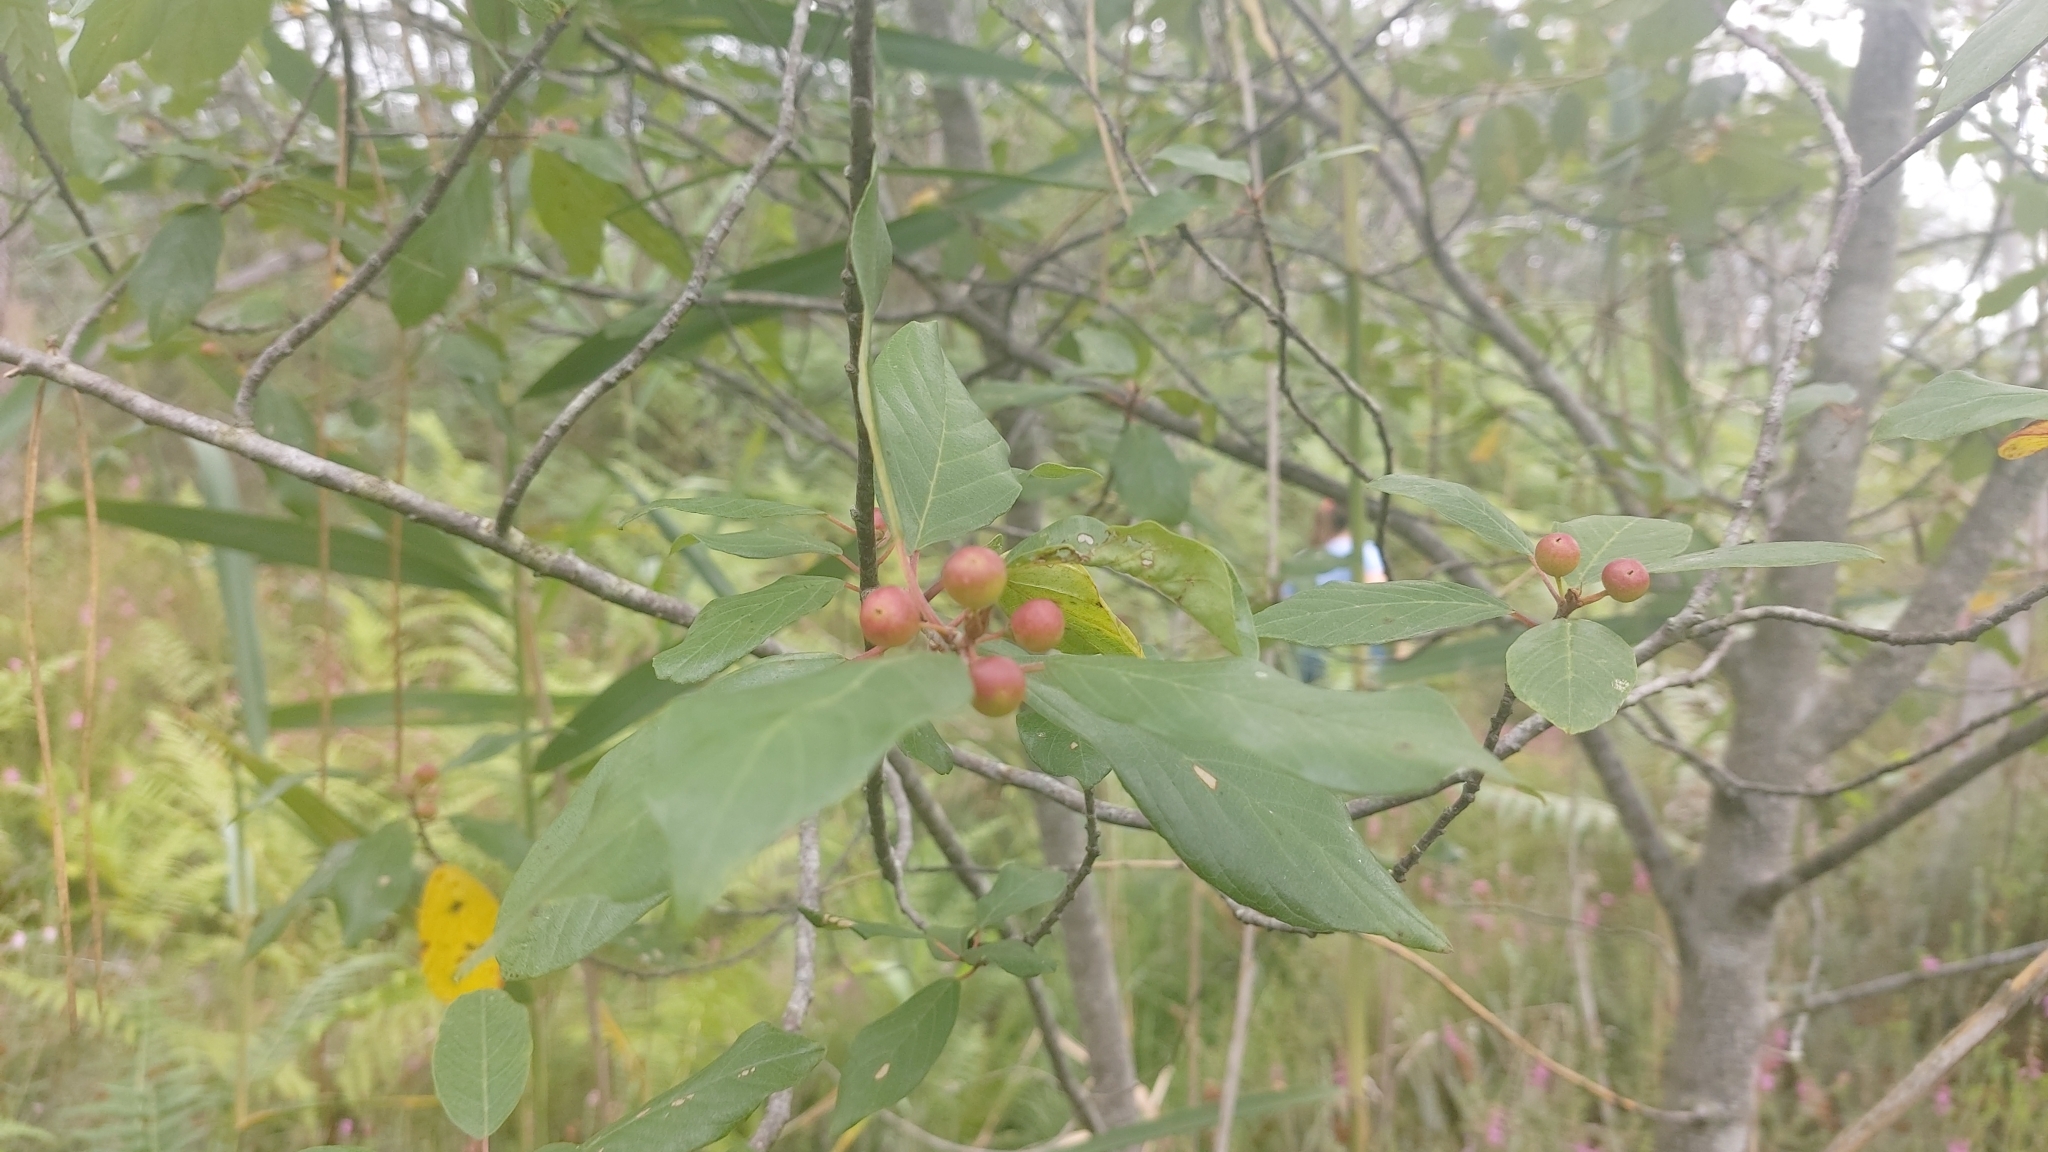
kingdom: Plantae
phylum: Tracheophyta
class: Magnoliopsida
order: Rosales
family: Rhamnaceae
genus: Frangula
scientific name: Frangula alnus
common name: Alder buckthorn
